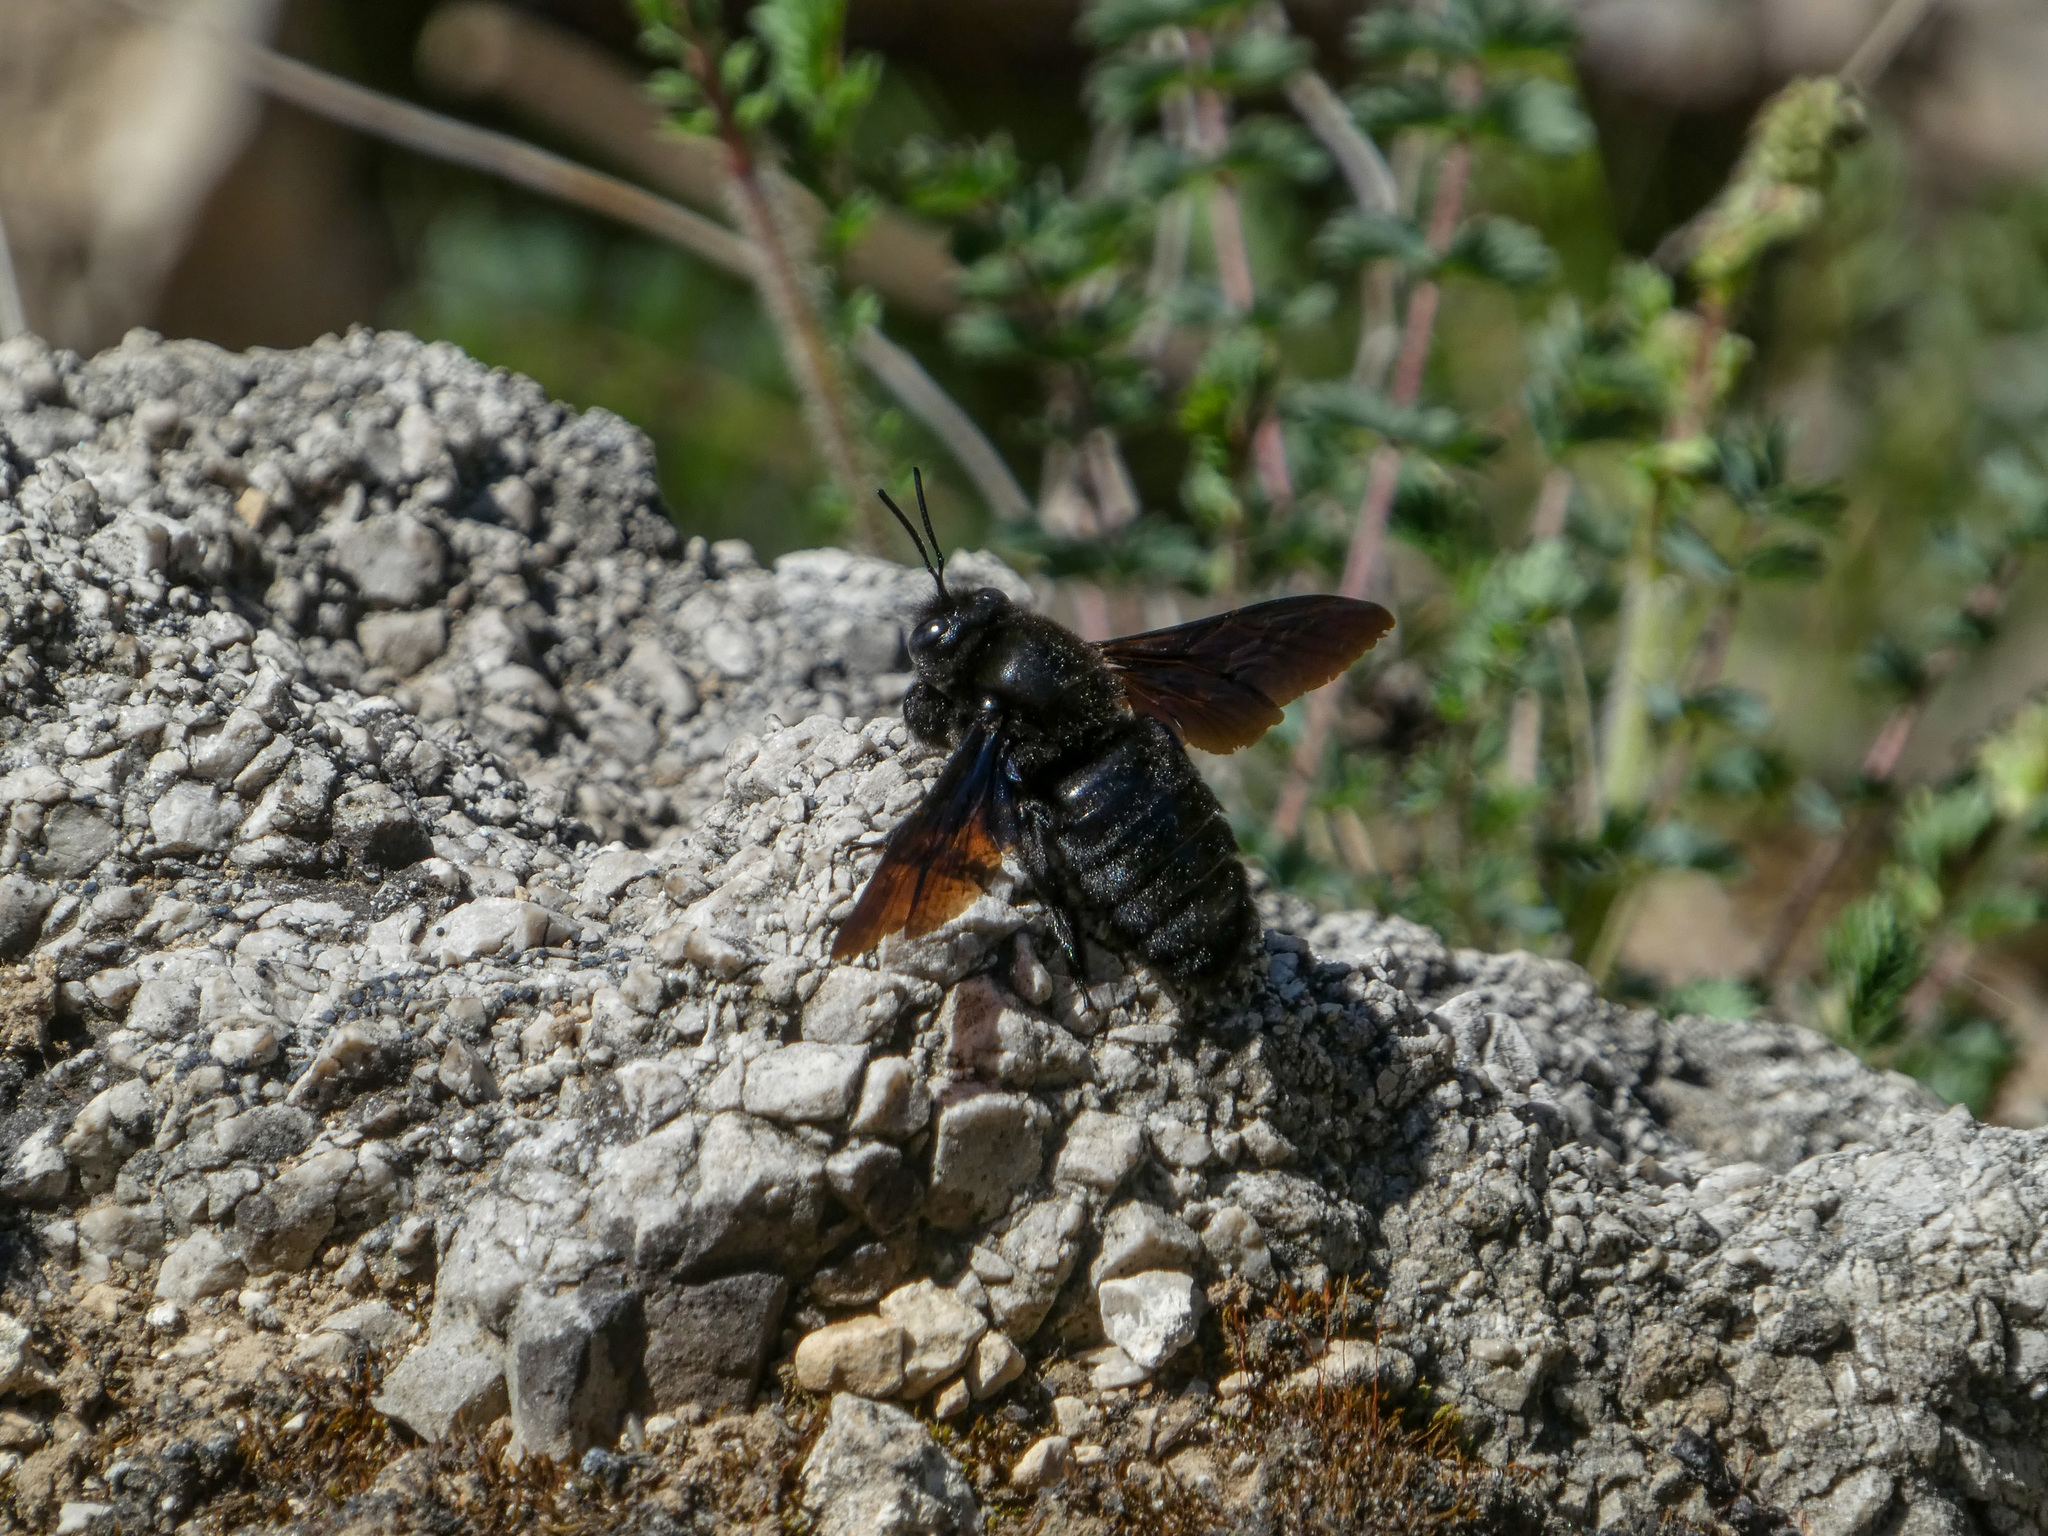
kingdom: Animalia
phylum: Arthropoda
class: Insecta
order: Hymenoptera
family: Apidae
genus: Xylocopa
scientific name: Xylocopa valga
